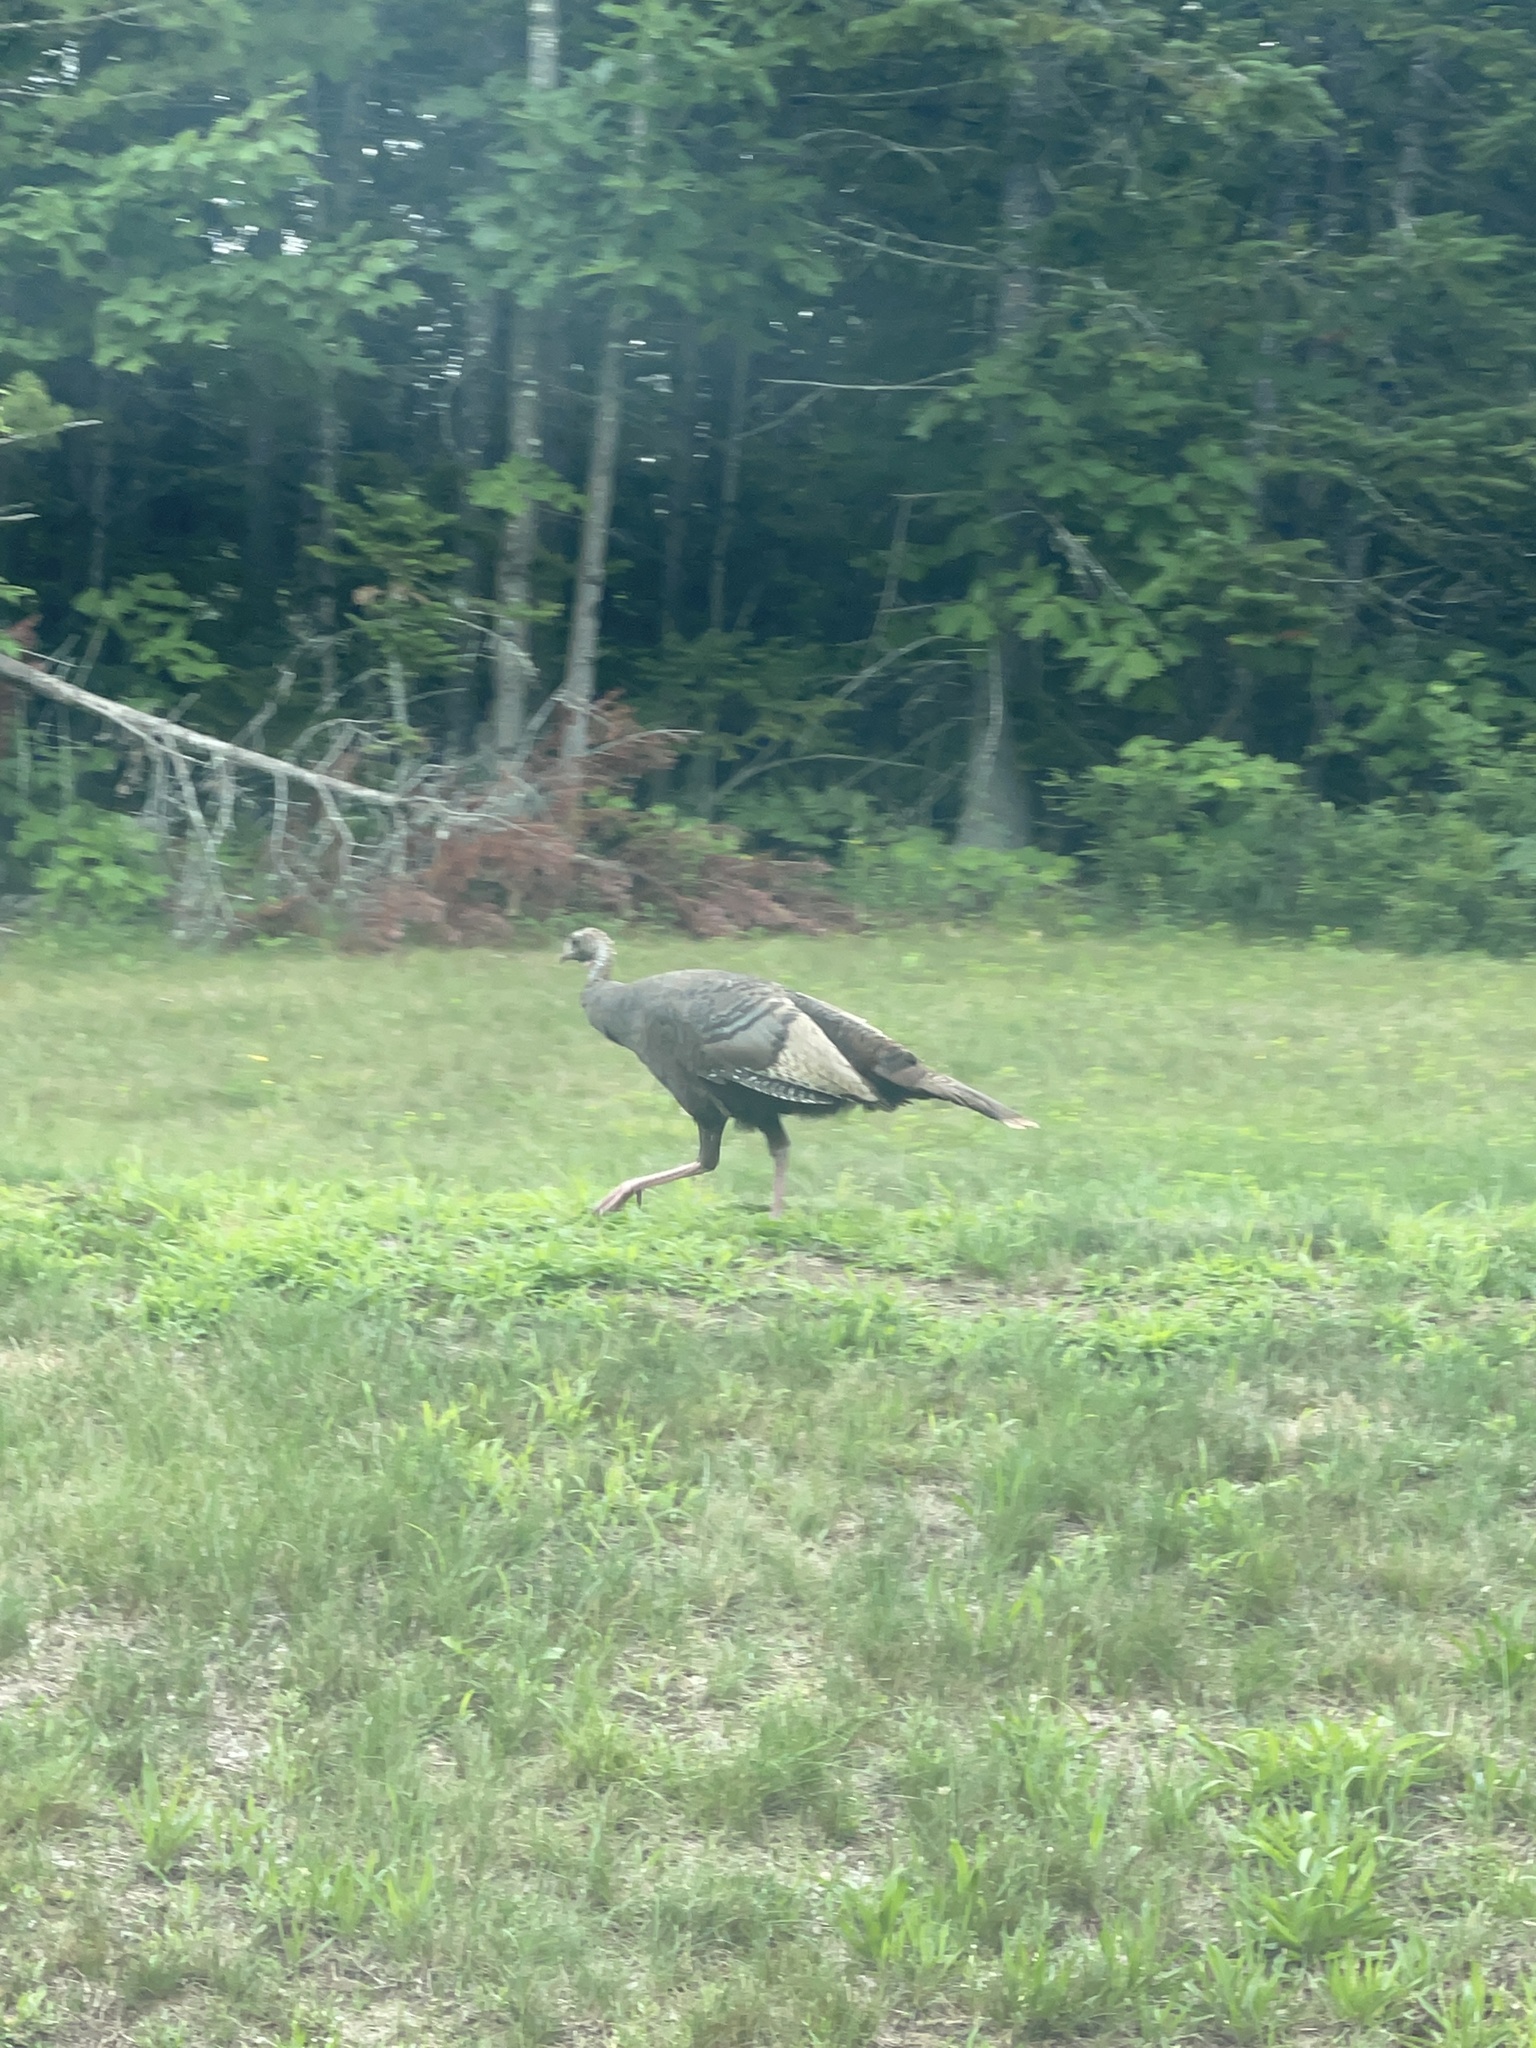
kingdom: Animalia
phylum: Chordata
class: Aves
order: Galliformes
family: Phasianidae
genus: Meleagris
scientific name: Meleagris gallopavo
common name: Wild turkey
